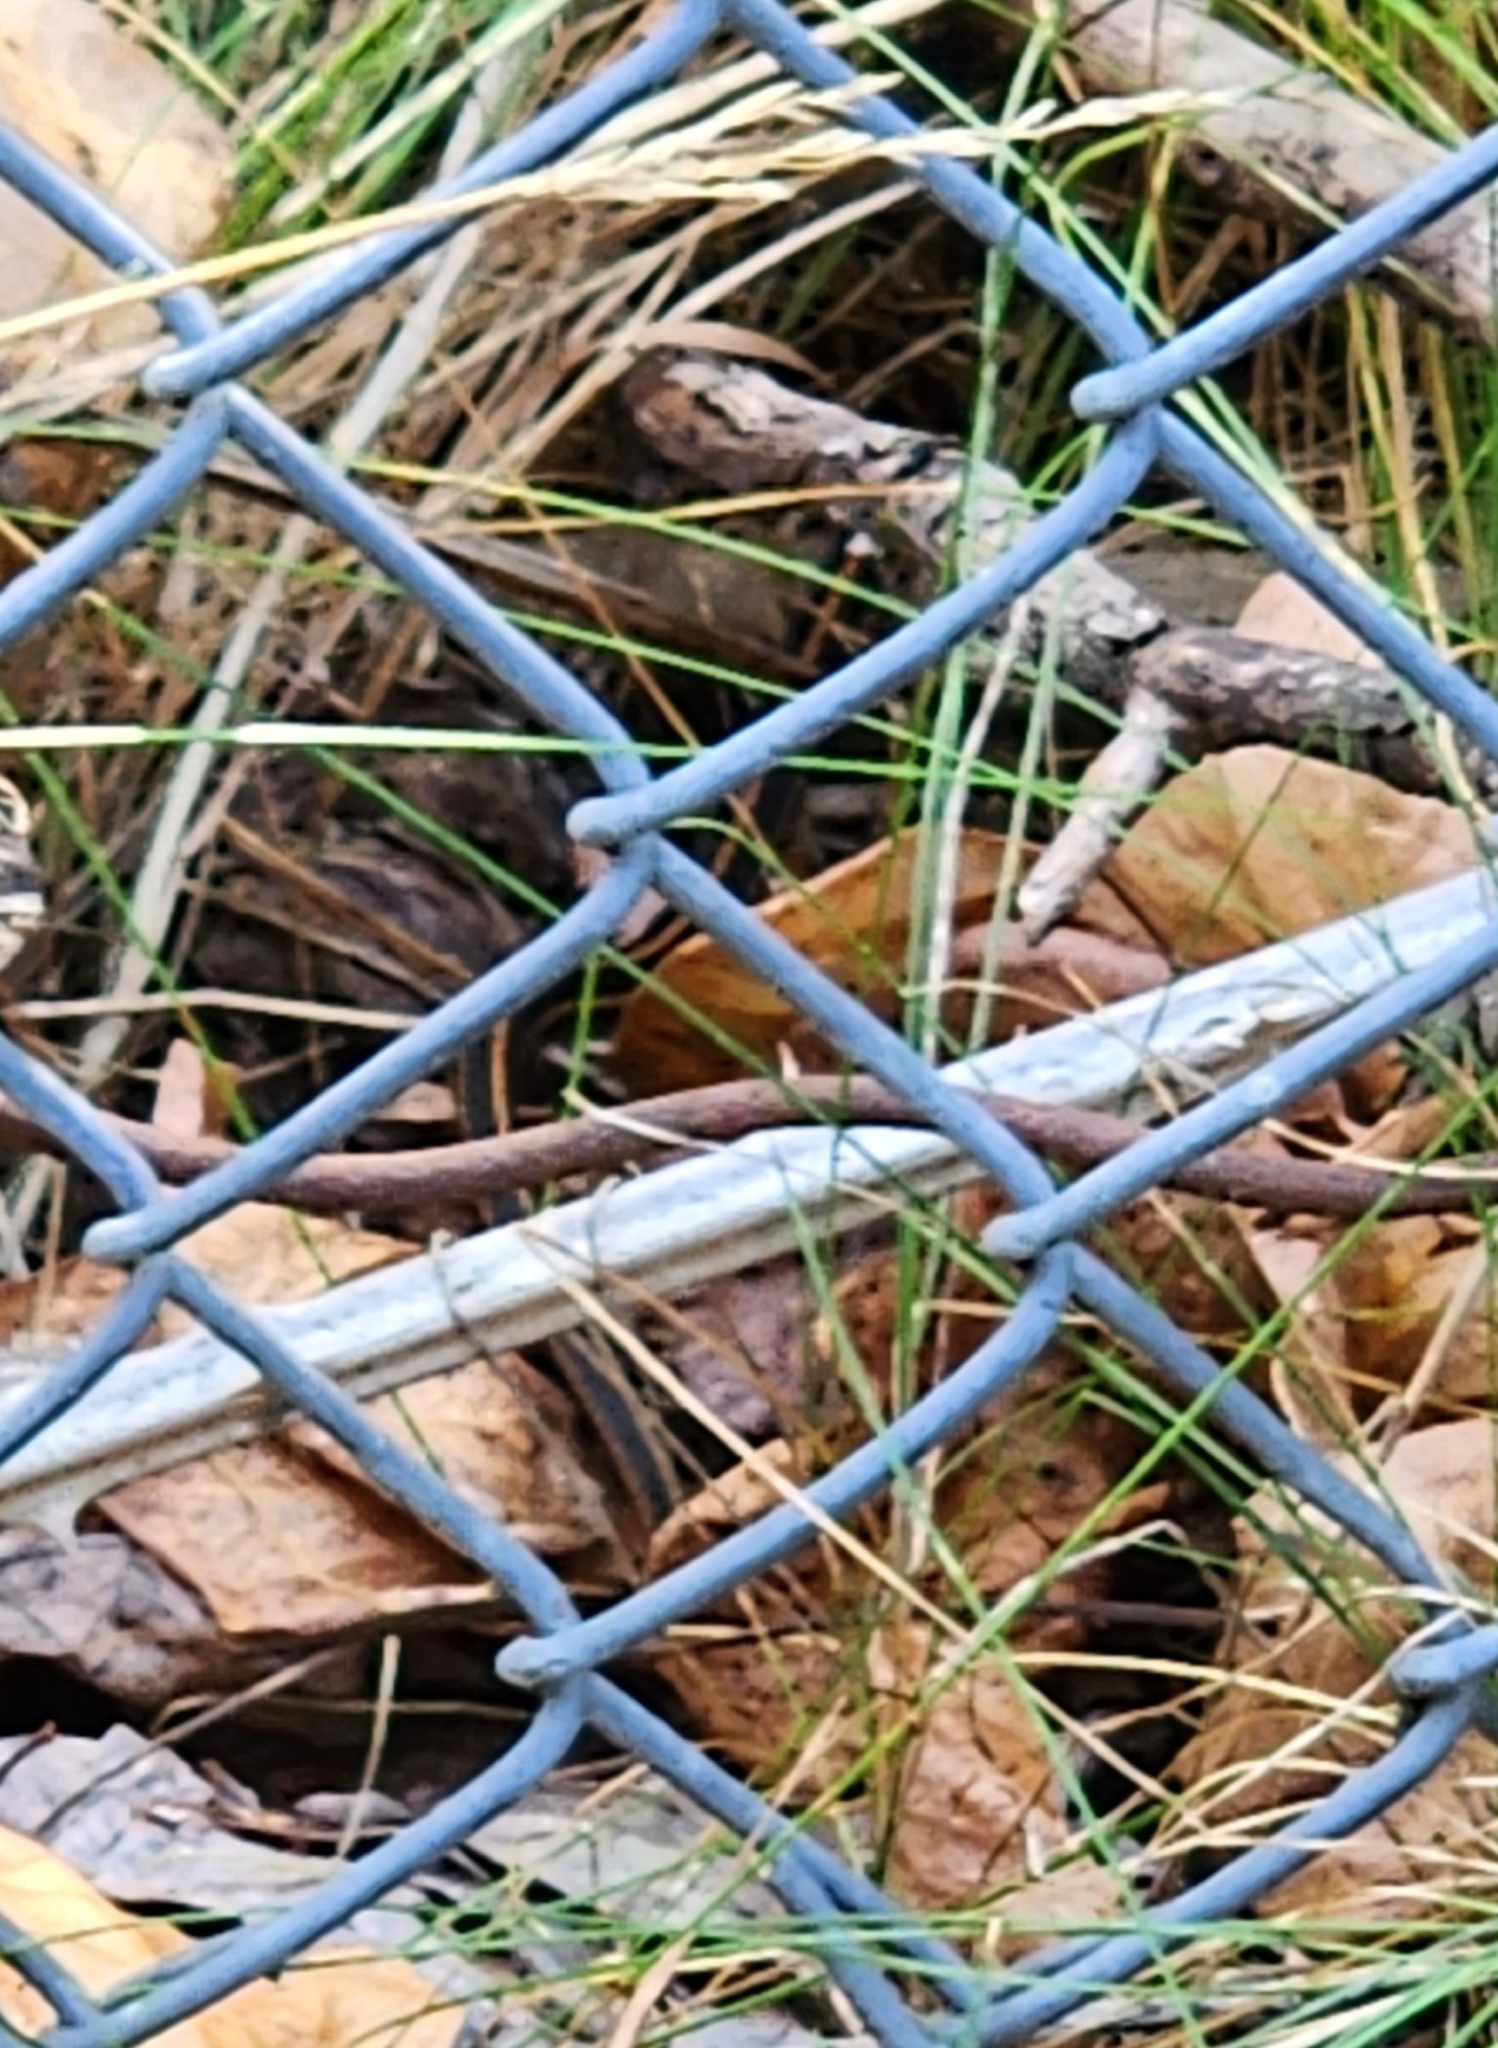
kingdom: Animalia
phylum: Chordata
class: Squamata
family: Colubridae
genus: Thamnophis
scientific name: Thamnophis ordinoides
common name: Northwestern garter snake
